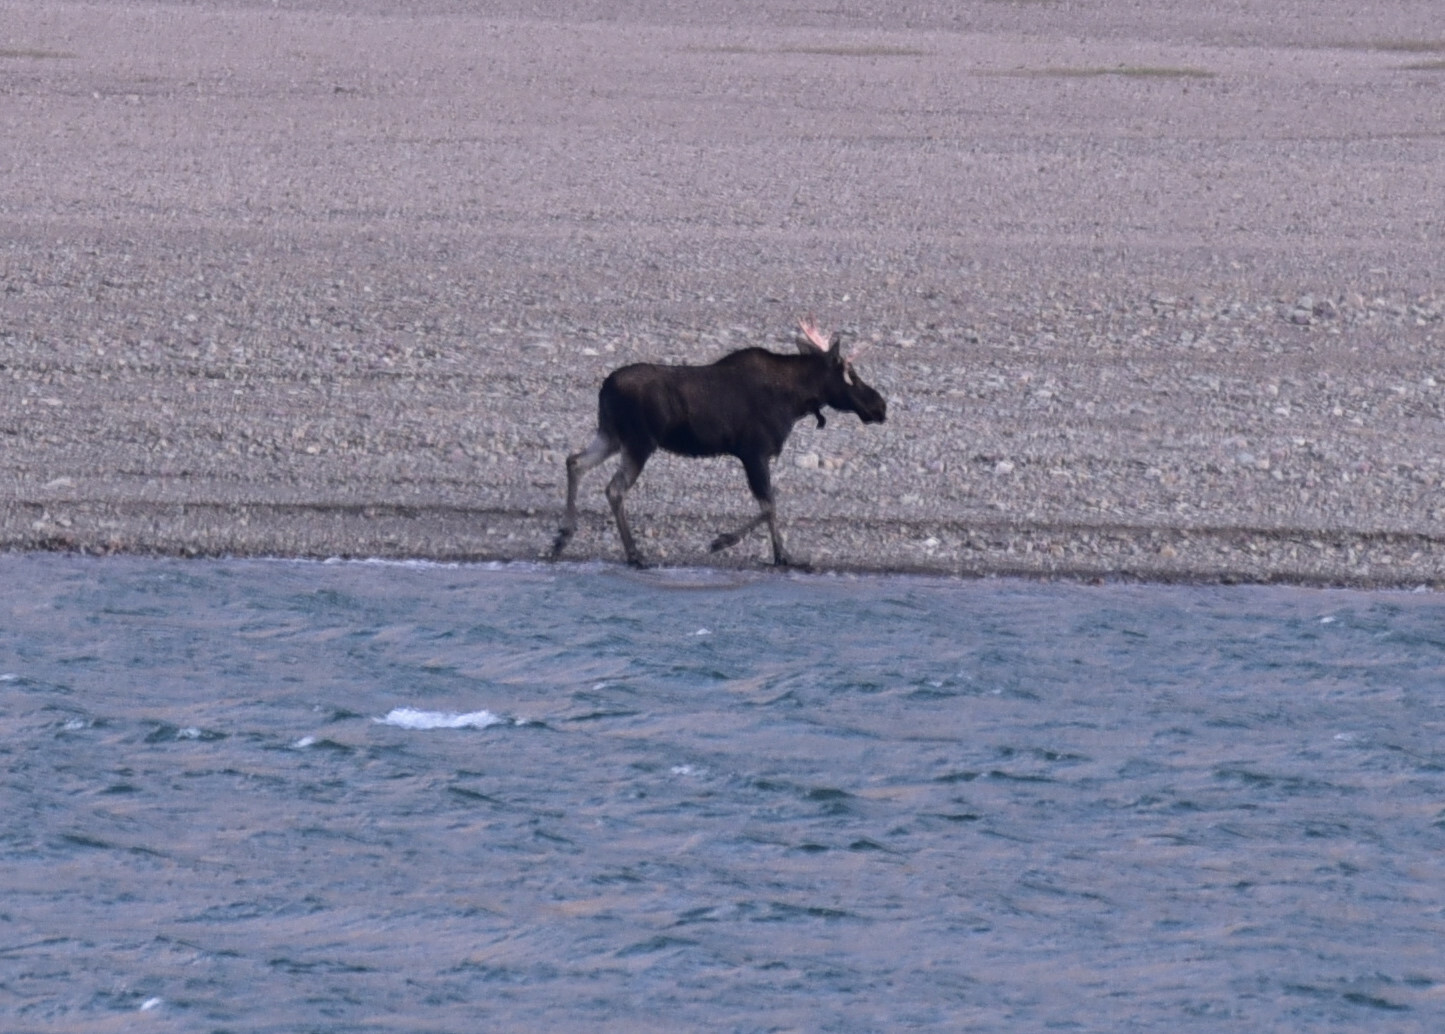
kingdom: Animalia
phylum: Chordata
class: Mammalia
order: Artiodactyla
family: Cervidae
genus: Alces
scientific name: Alces americanus
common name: Moose
